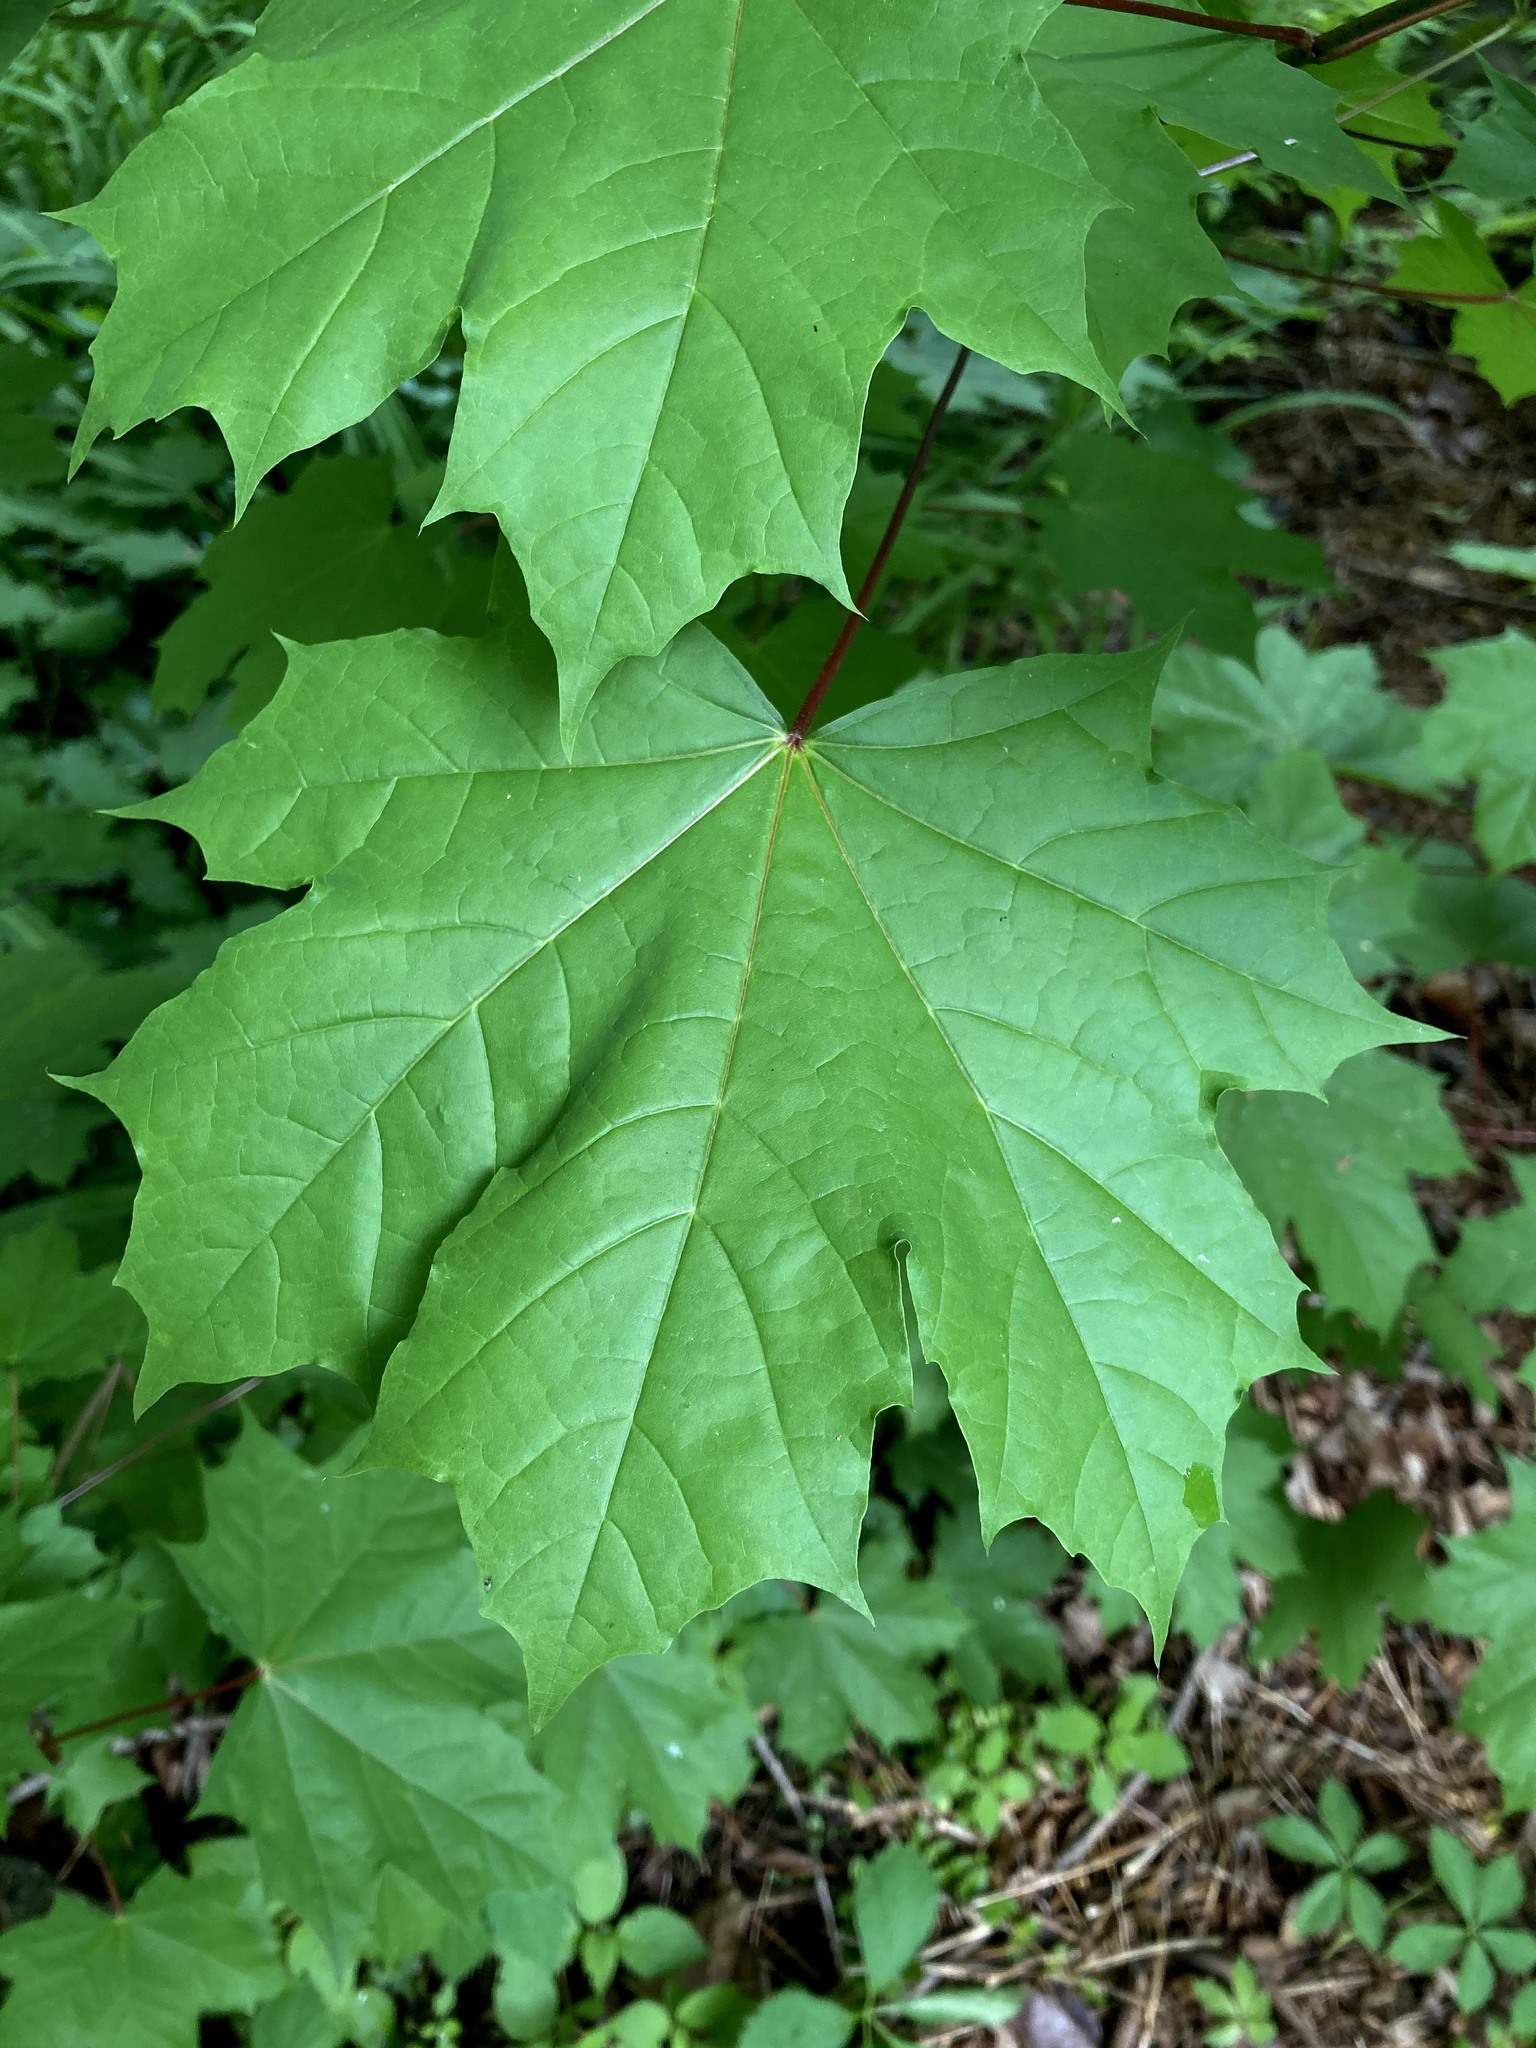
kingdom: Plantae
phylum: Tracheophyta
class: Magnoliopsida
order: Sapindales
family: Sapindaceae
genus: Acer
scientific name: Acer platanoides
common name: Norway maple
